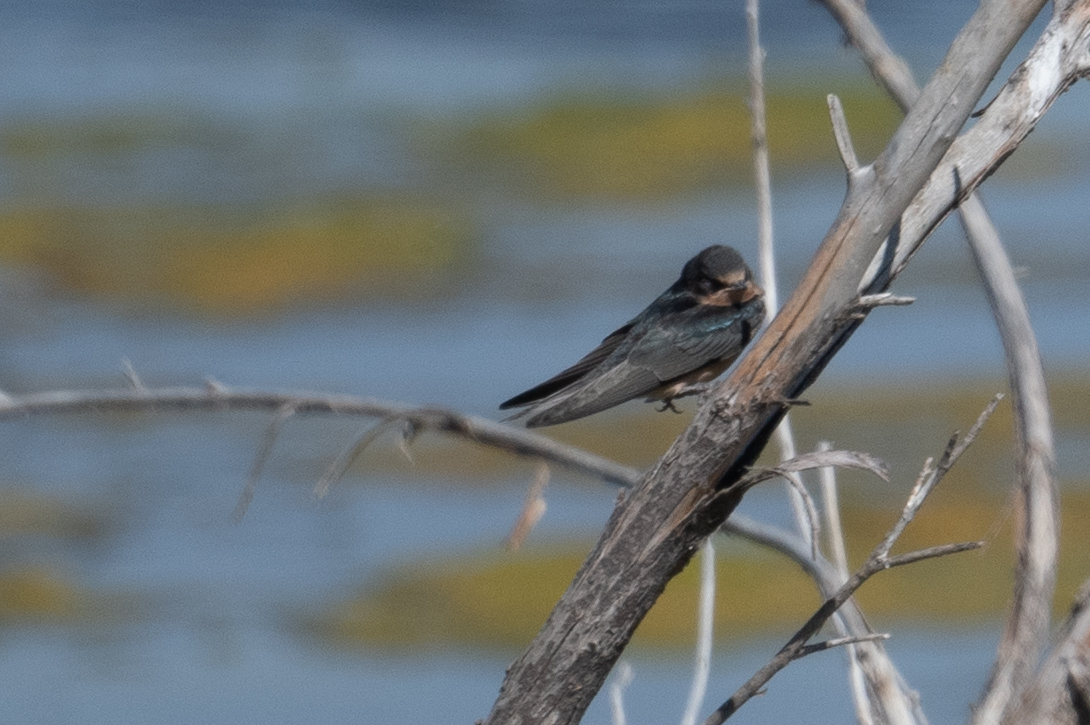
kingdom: Animalia
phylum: Chordata
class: Aves
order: Passeriformes
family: Hirundinidae
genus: Hirundo
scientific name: Hirundo rustica
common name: Barn swallow
